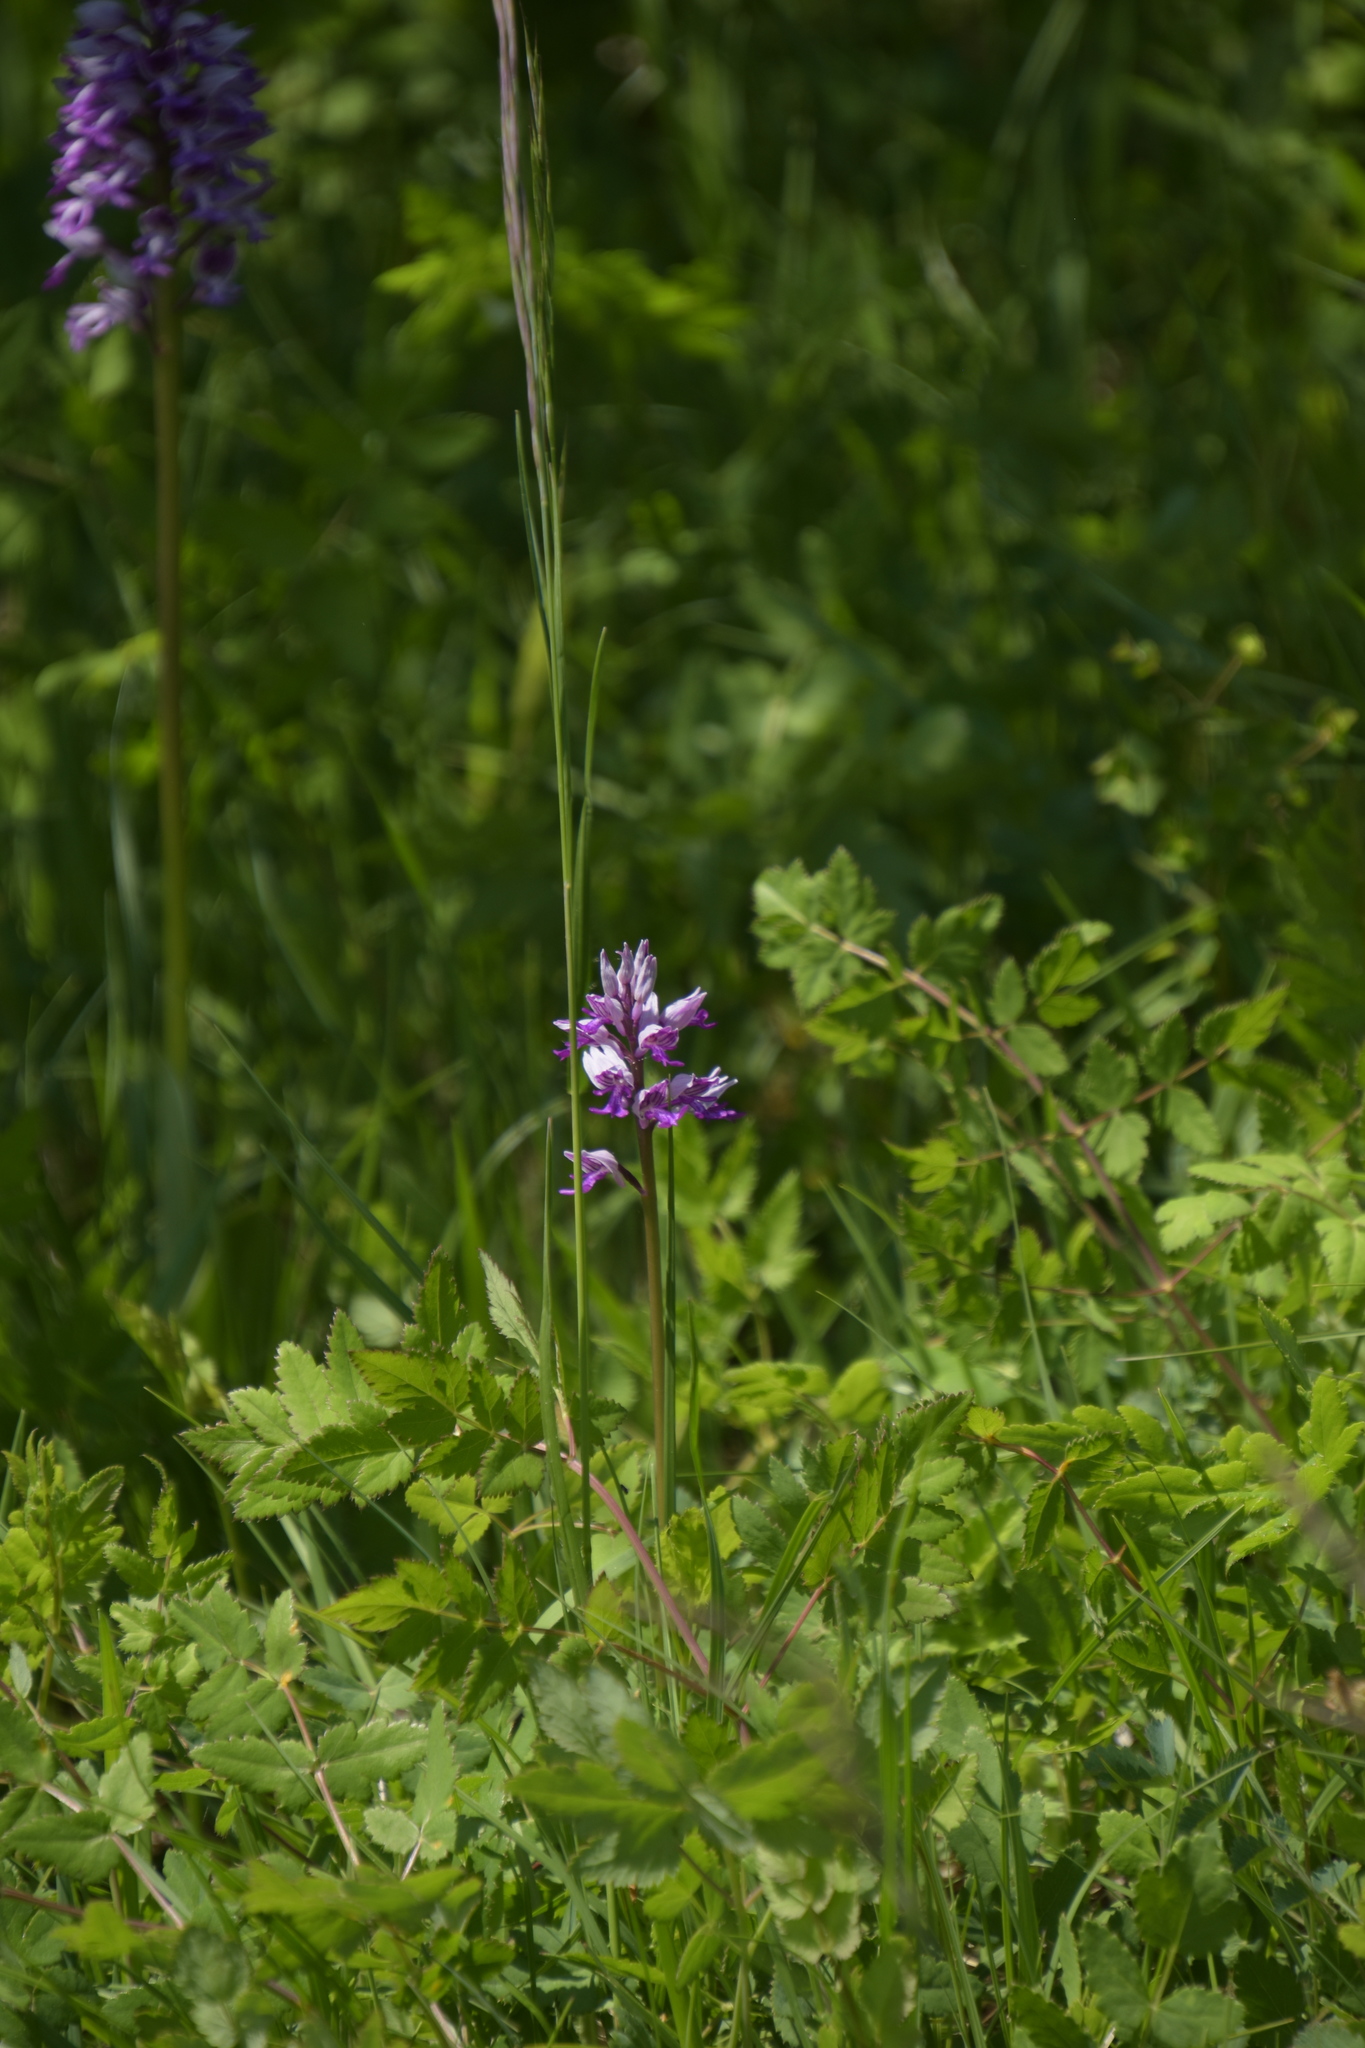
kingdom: Plantae
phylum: Tracheophyta
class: Liliopsida
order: Asparagales
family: Orchidaceae
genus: Orchis
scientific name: Orchis militaris
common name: Military orchid
